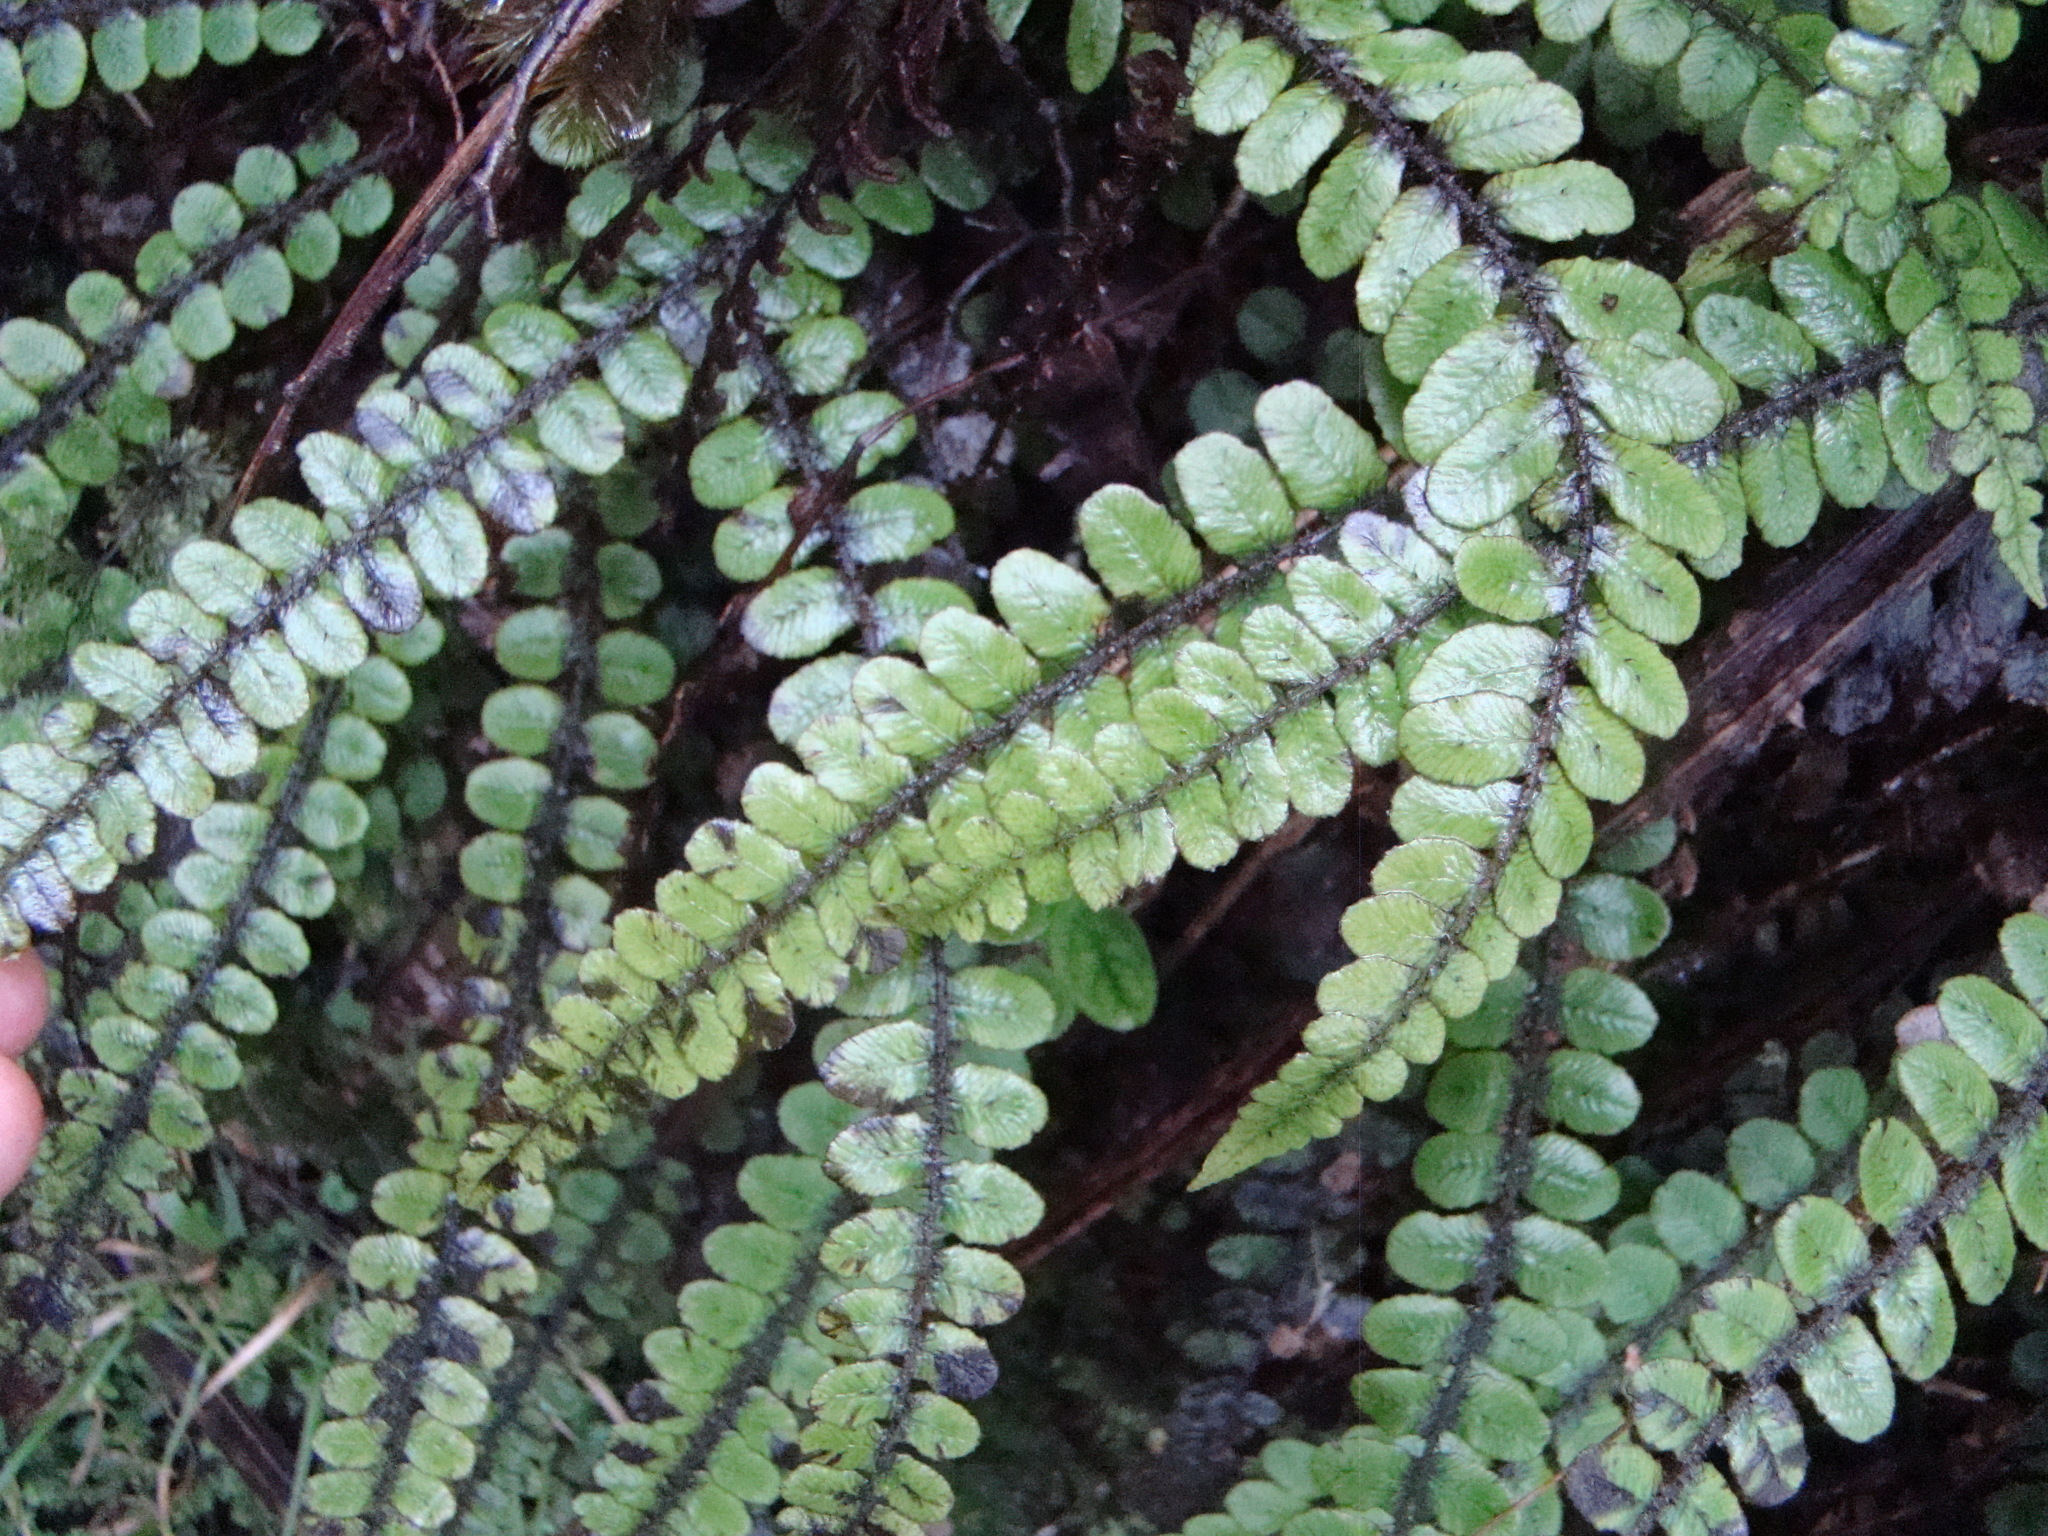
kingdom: Plantae
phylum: Tracheophyta
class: Polypodiopsida
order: Polypodiales
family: Blechnaceae
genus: Cranfillia
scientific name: Cranfillia fluviatilis
